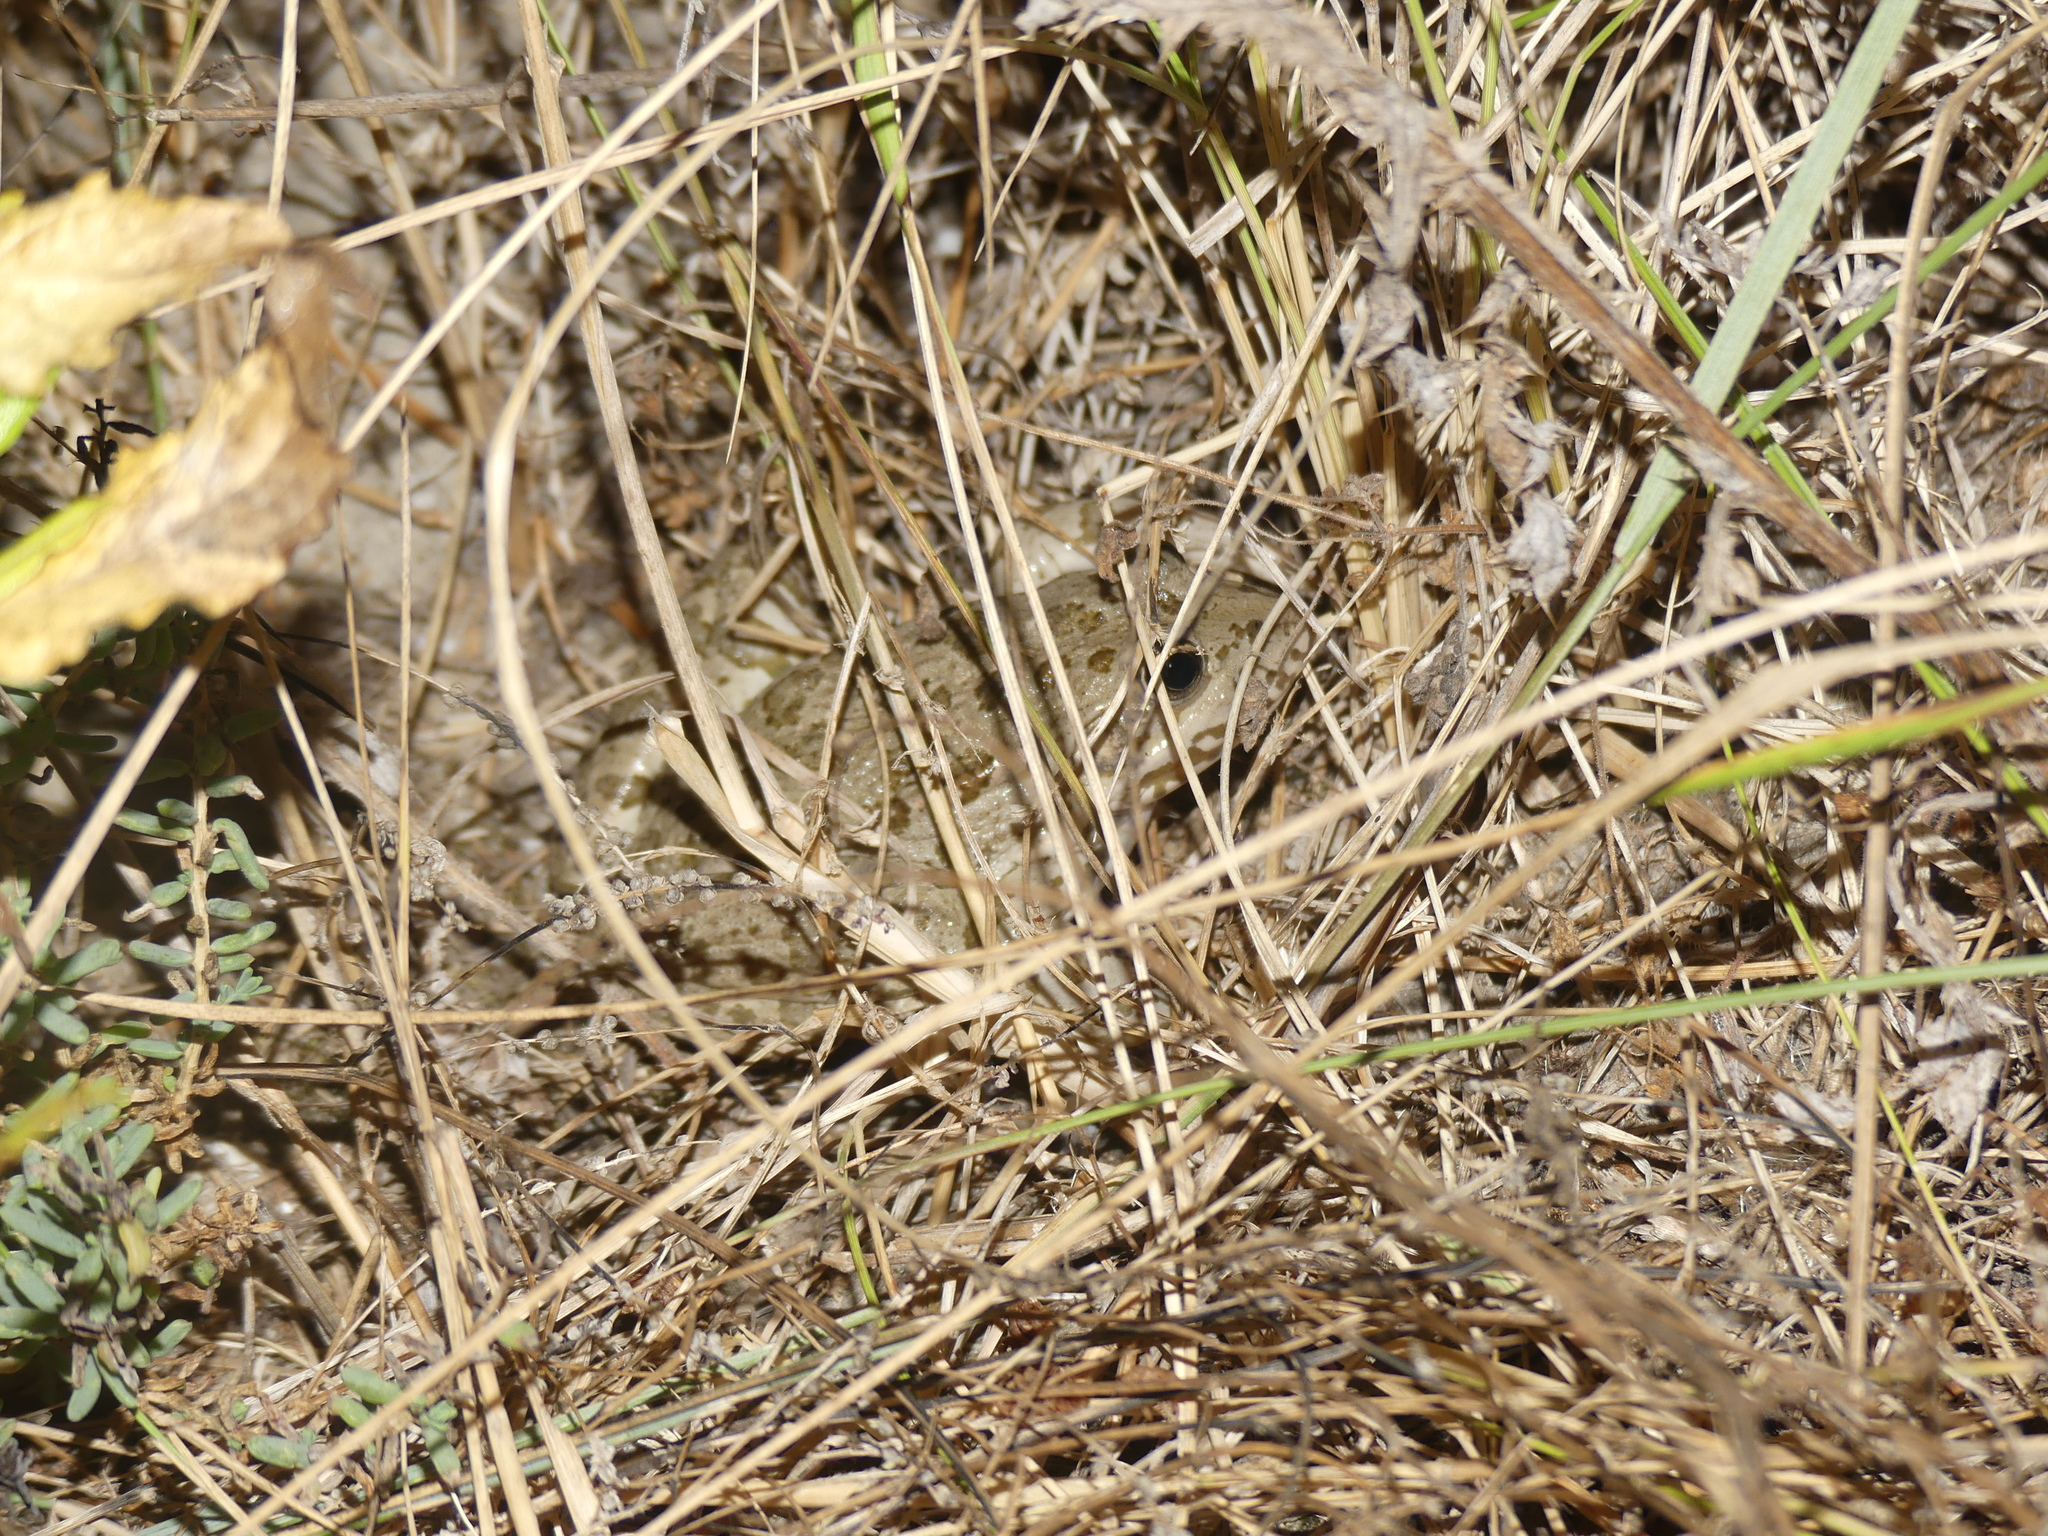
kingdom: Animalia
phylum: Chordata
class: Amphibia
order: Anura
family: Ranidae
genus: Pelophylax
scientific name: Pelophylax
